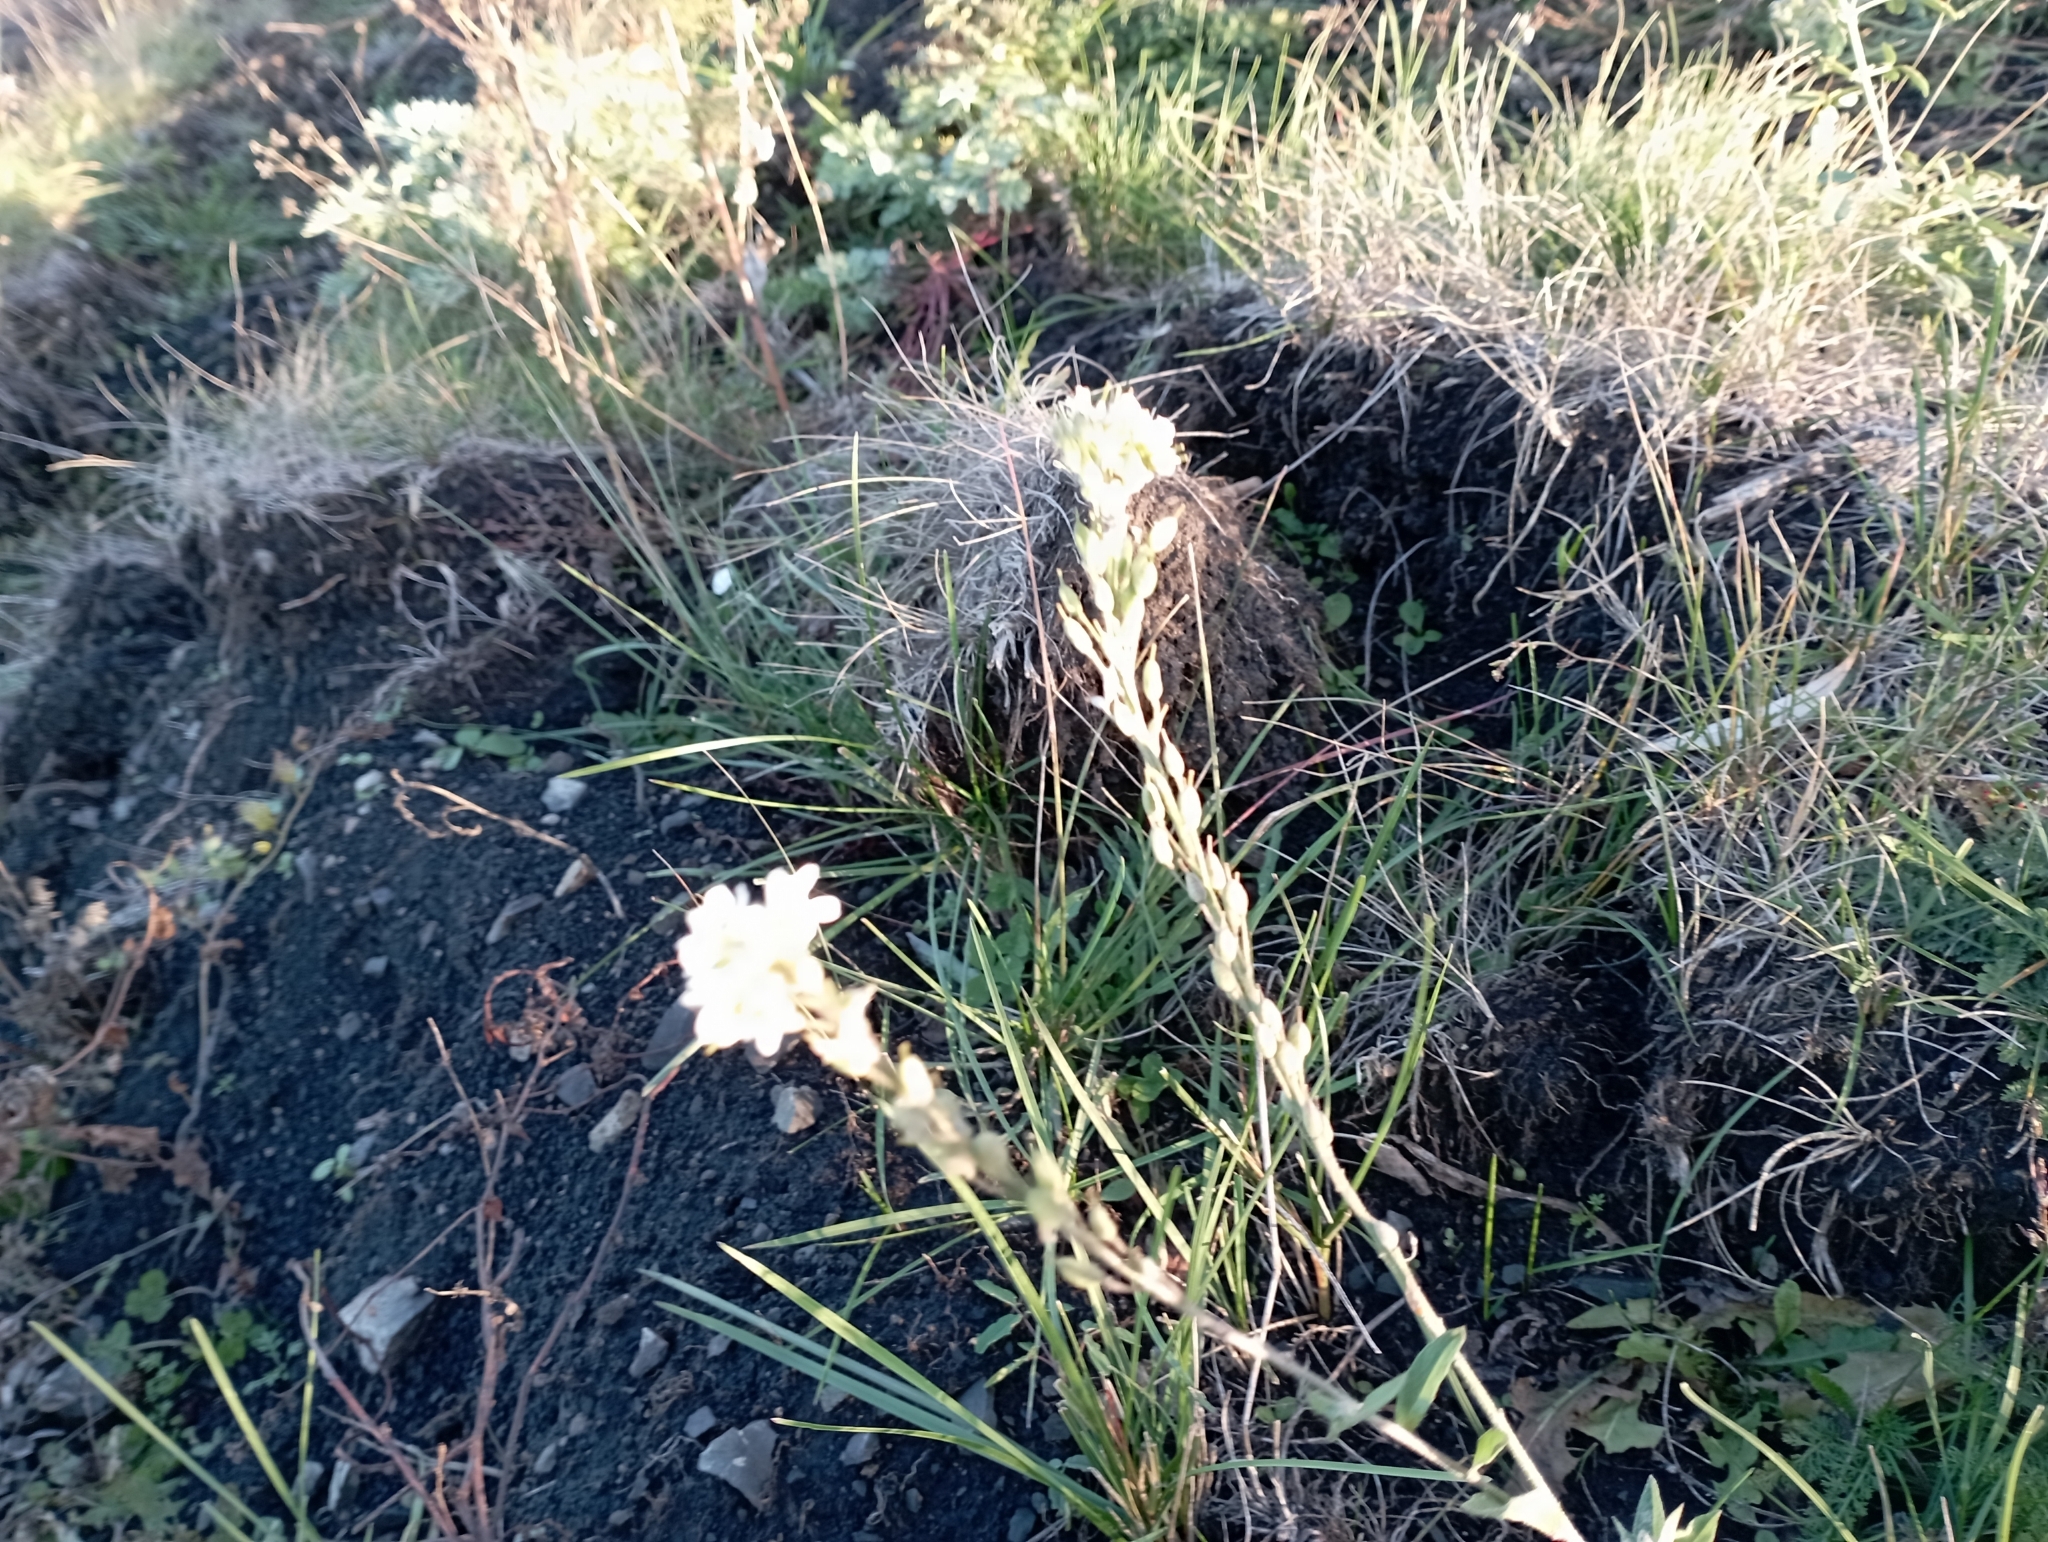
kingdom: Plantae
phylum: Tracheophyta
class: Magnoliopsida
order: Brassicales
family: Brassicaceae
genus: Berteroa
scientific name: Berteroa incana
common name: Hoary alison
